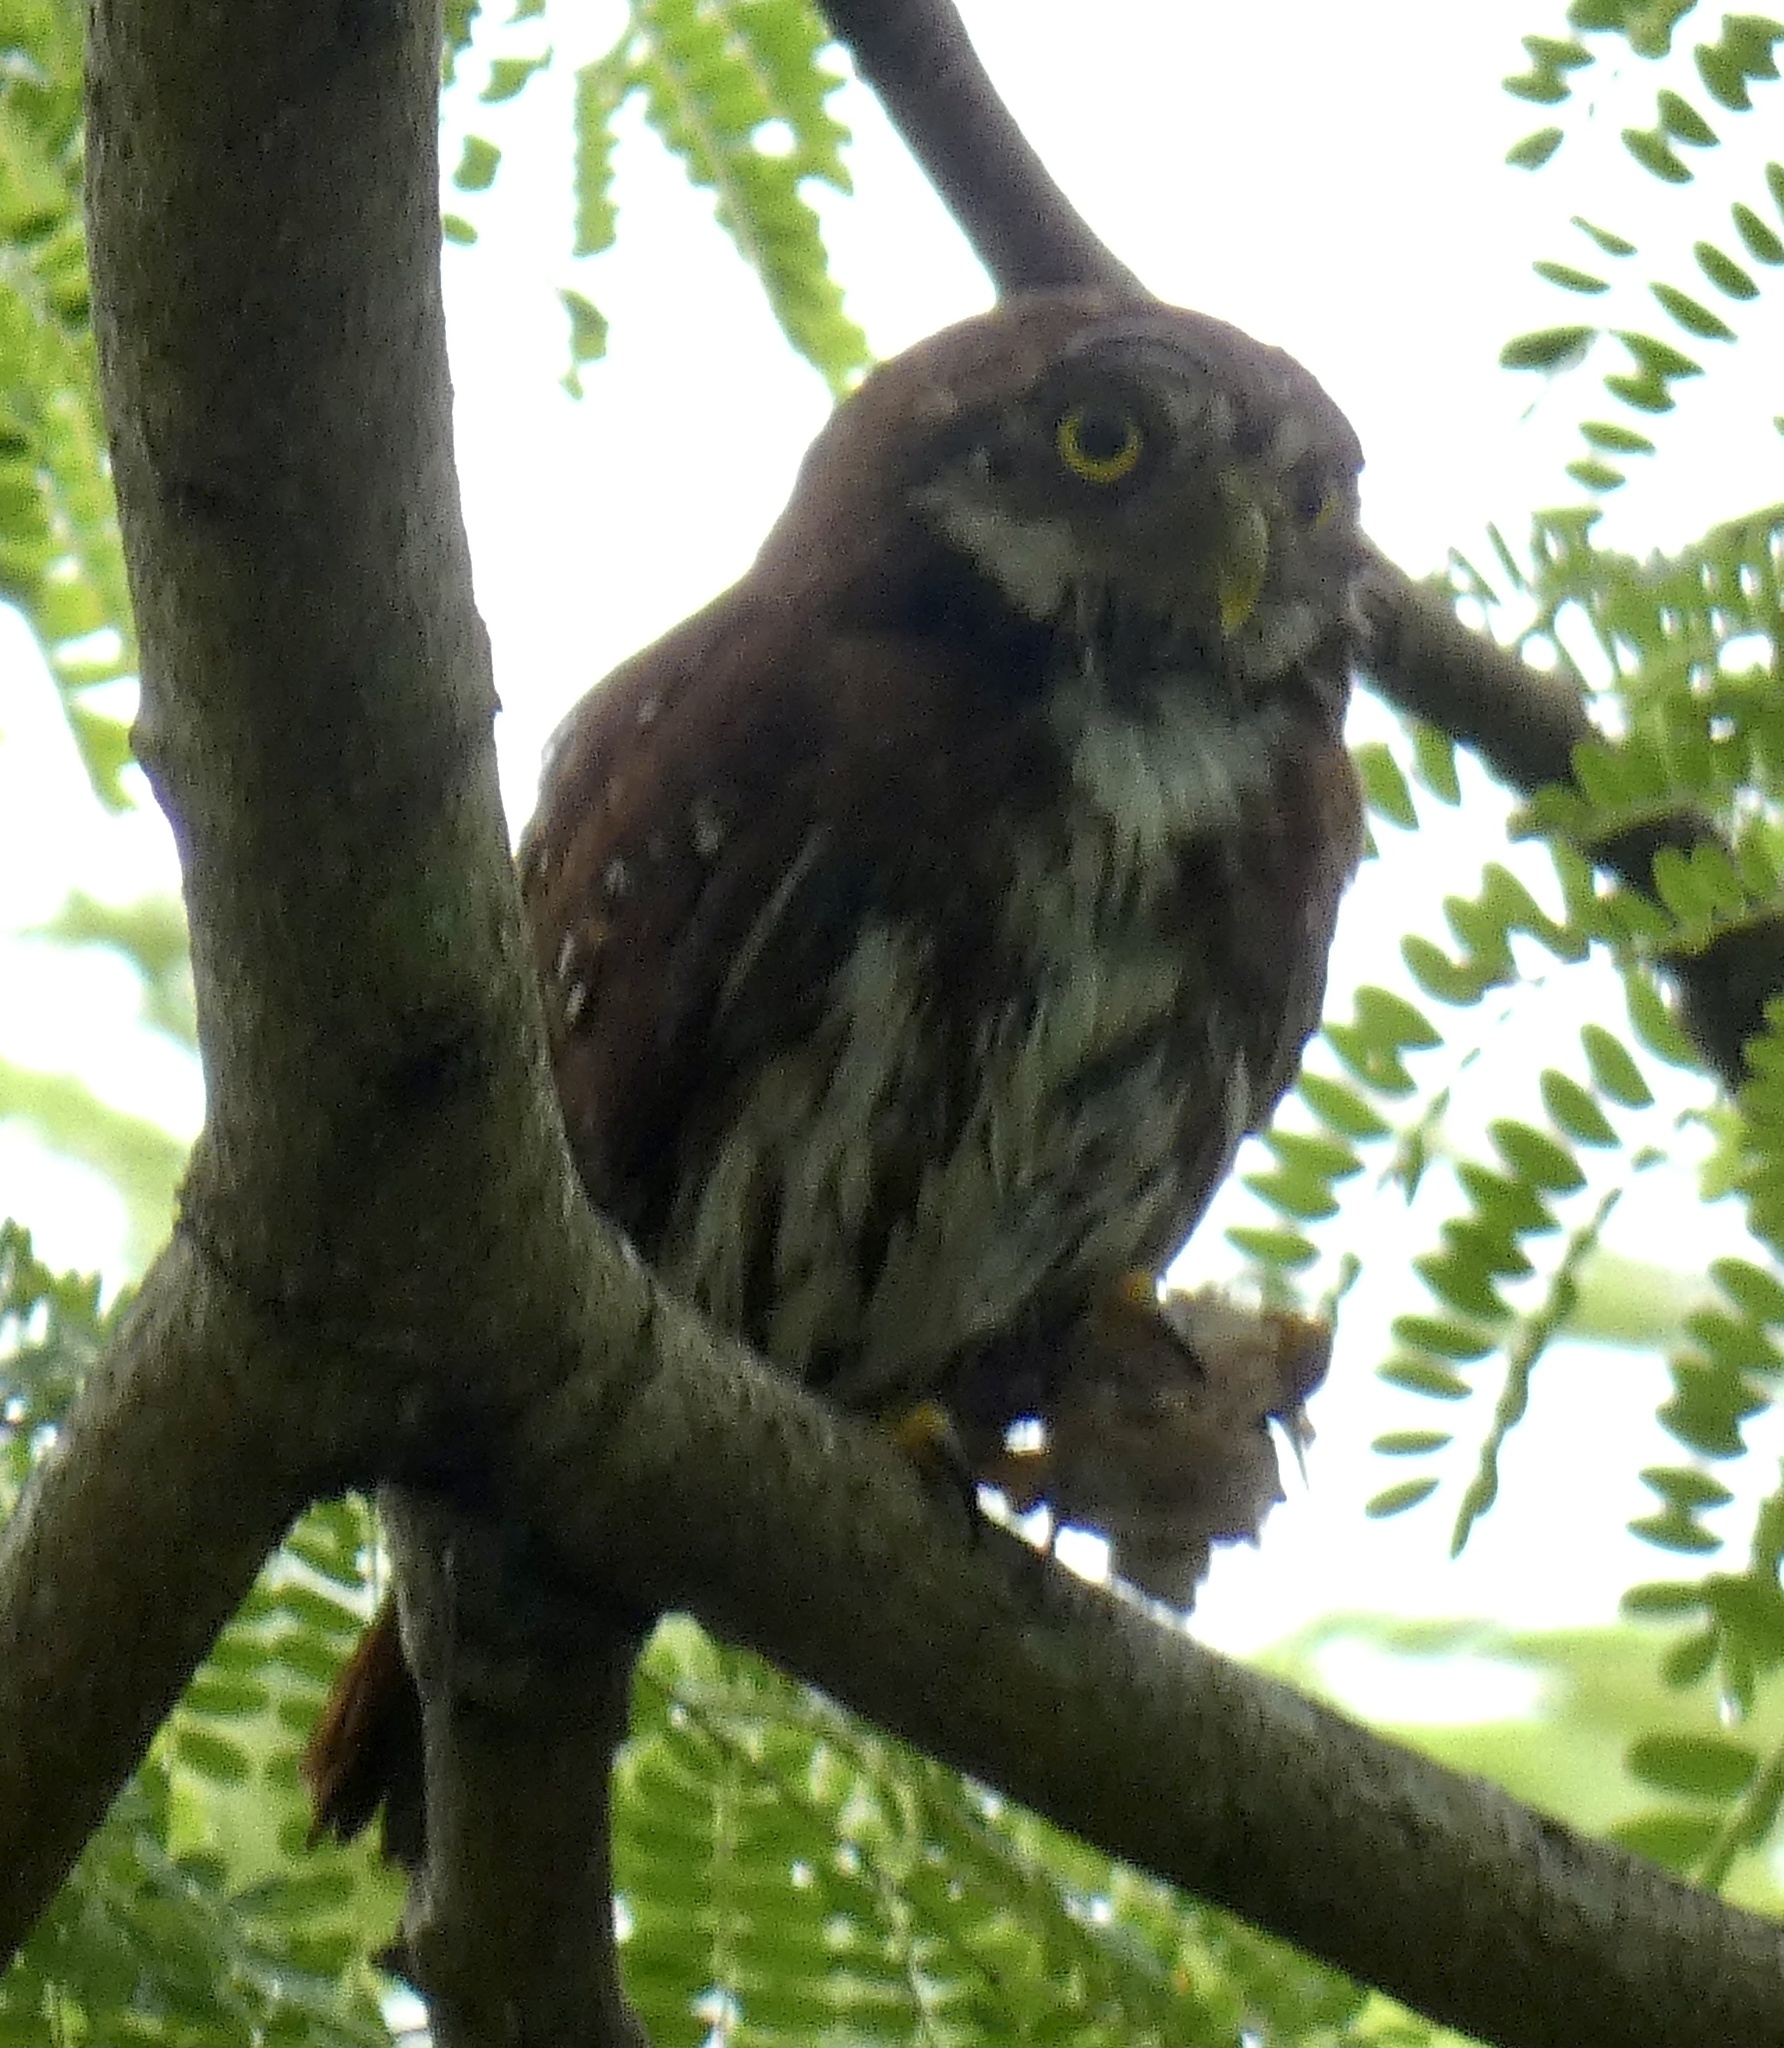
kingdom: Animalia
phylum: Chordata
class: Aves
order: Strigiformes
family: Strigidae
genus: Glaucidium
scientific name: Glaucidium brasilianum
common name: Ferruginous pygmy-owl
